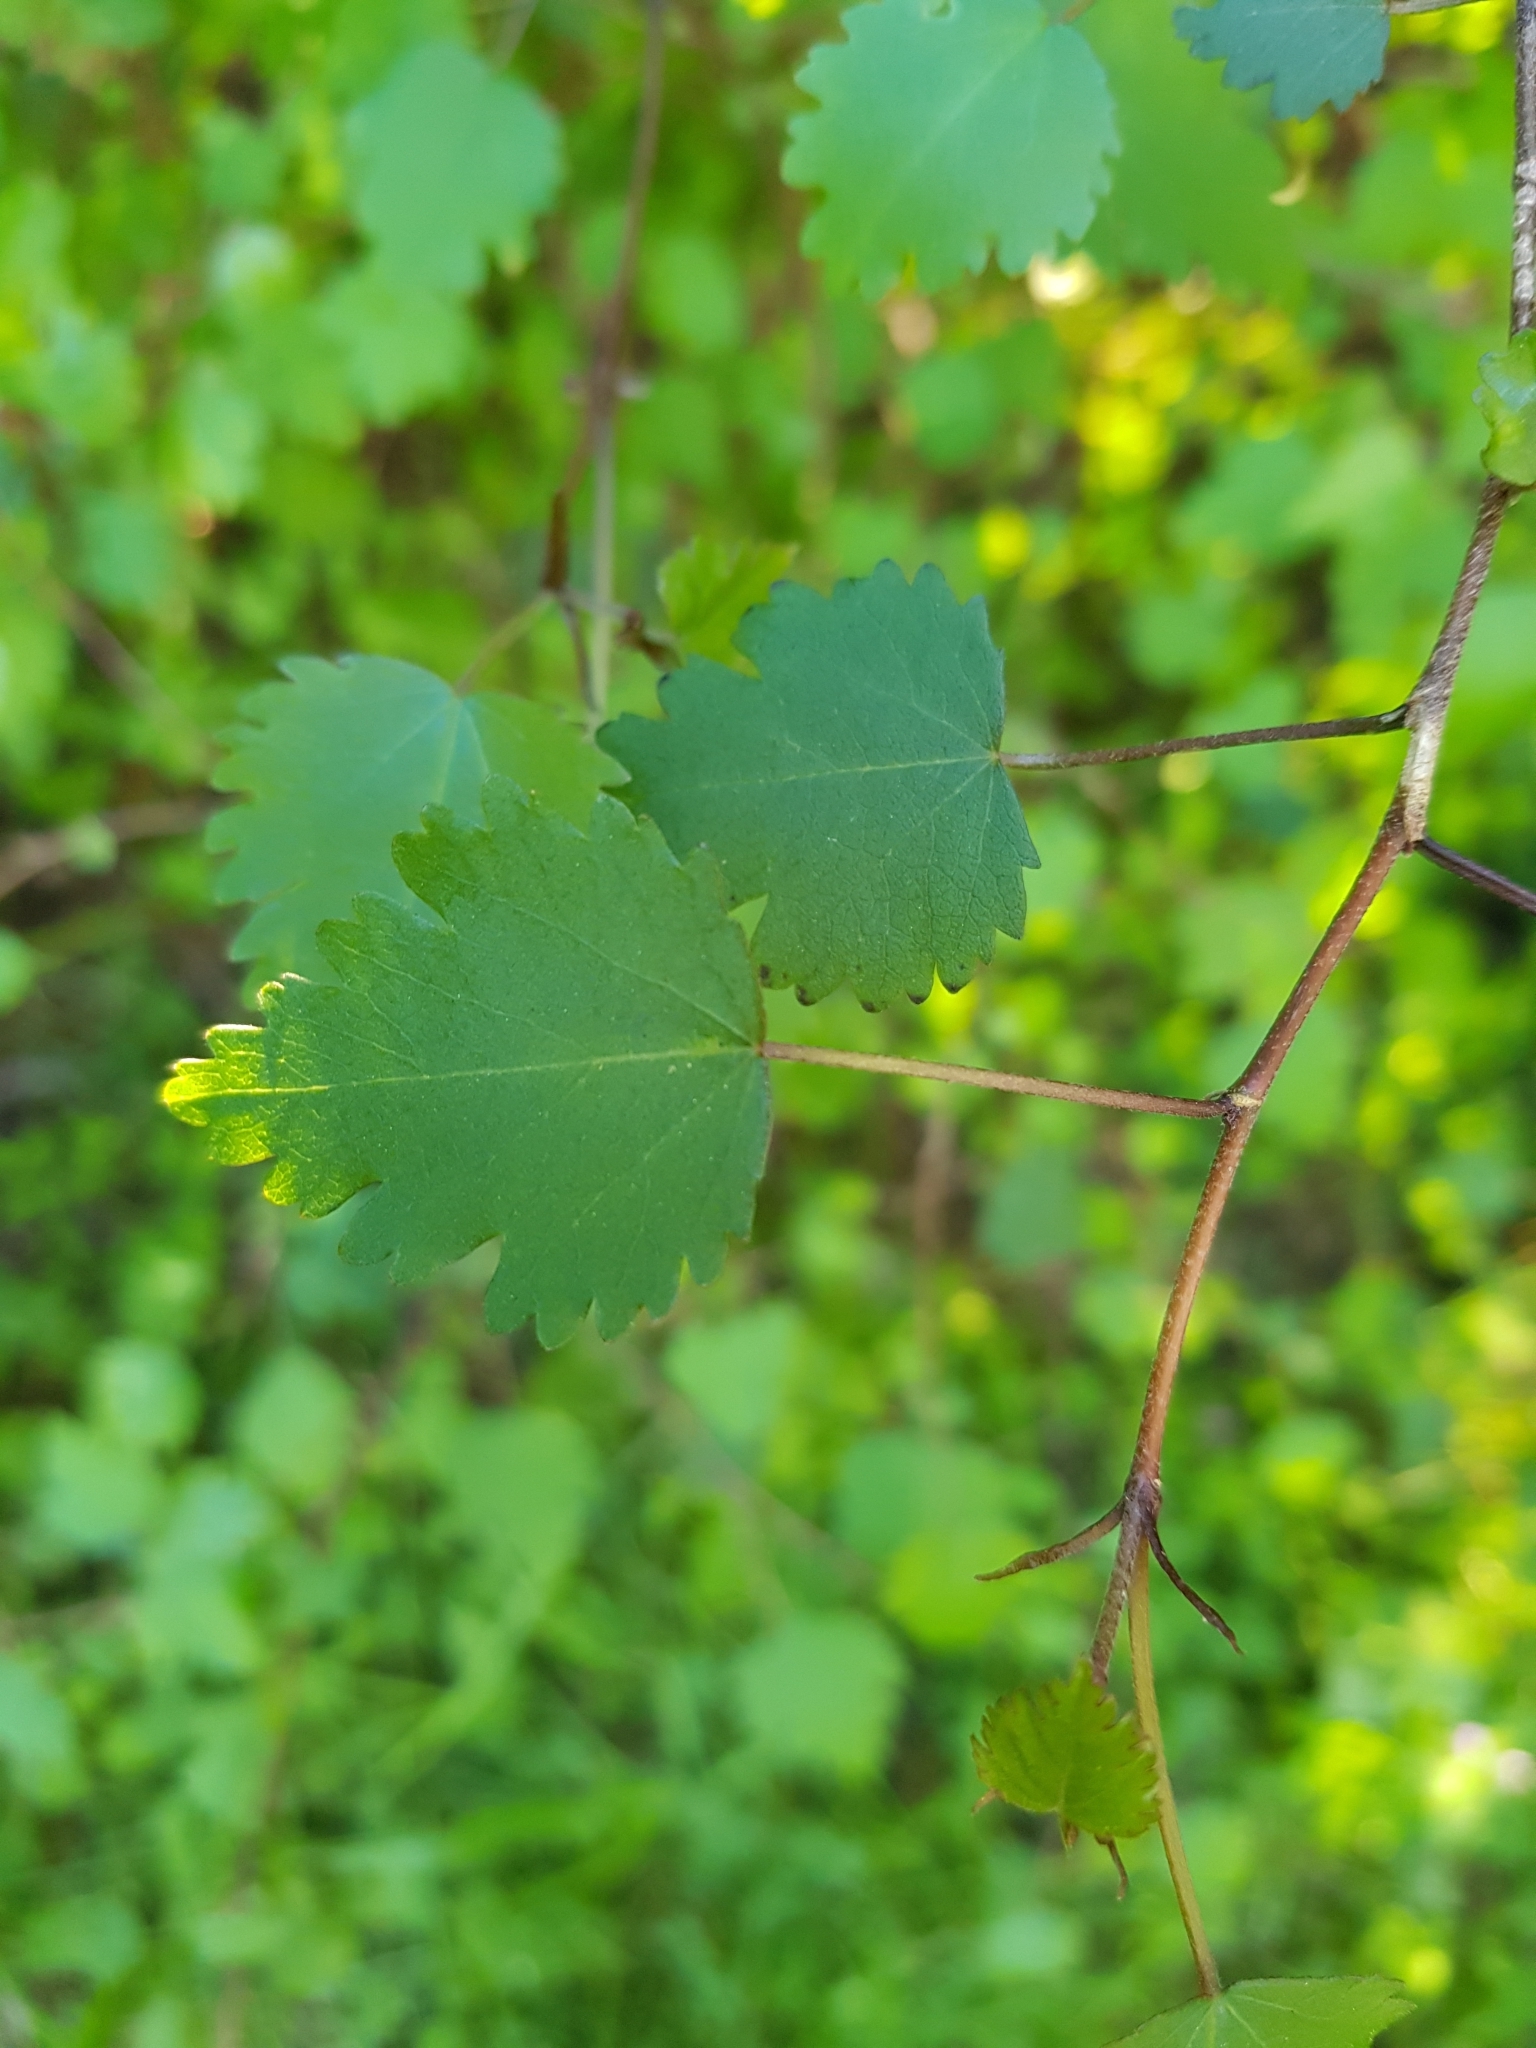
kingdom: Plantae
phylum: Tracheophyta
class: Magnoliopsida
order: Malvales
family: Malvaceae
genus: Plagianthus
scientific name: Plagianthus regius
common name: Manatu
